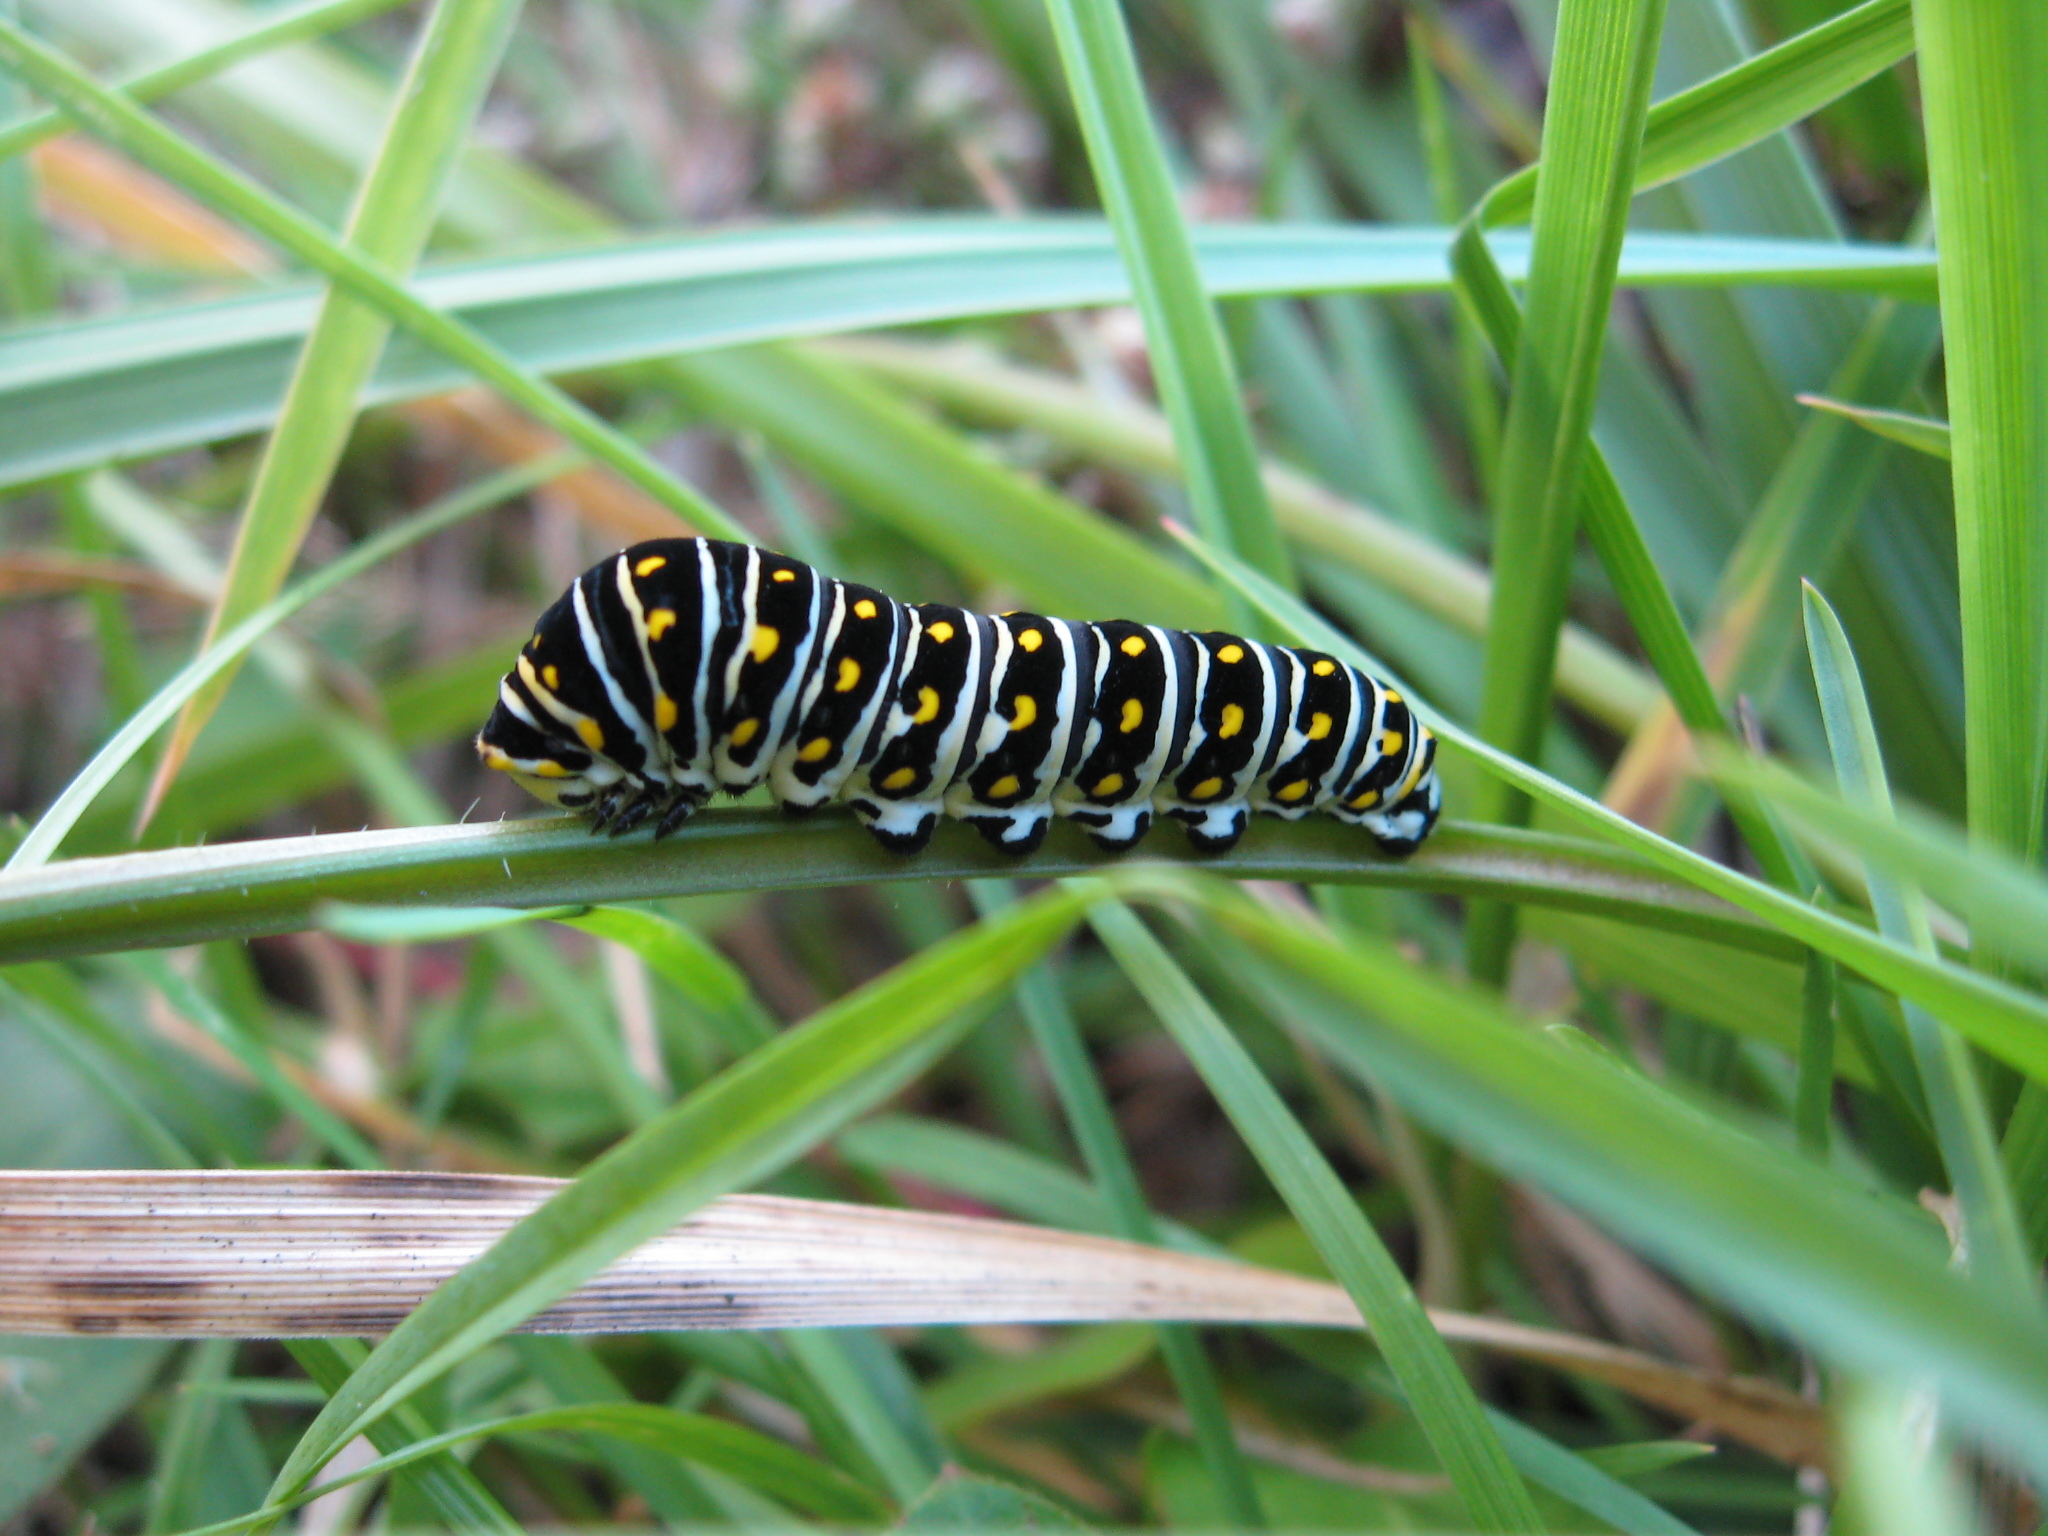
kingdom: Animalia
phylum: Arthropoda
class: Insecta
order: Lepidoptera
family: Papilionidae
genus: Papilio
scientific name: Papilio polyxenes
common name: Black swallowtail
